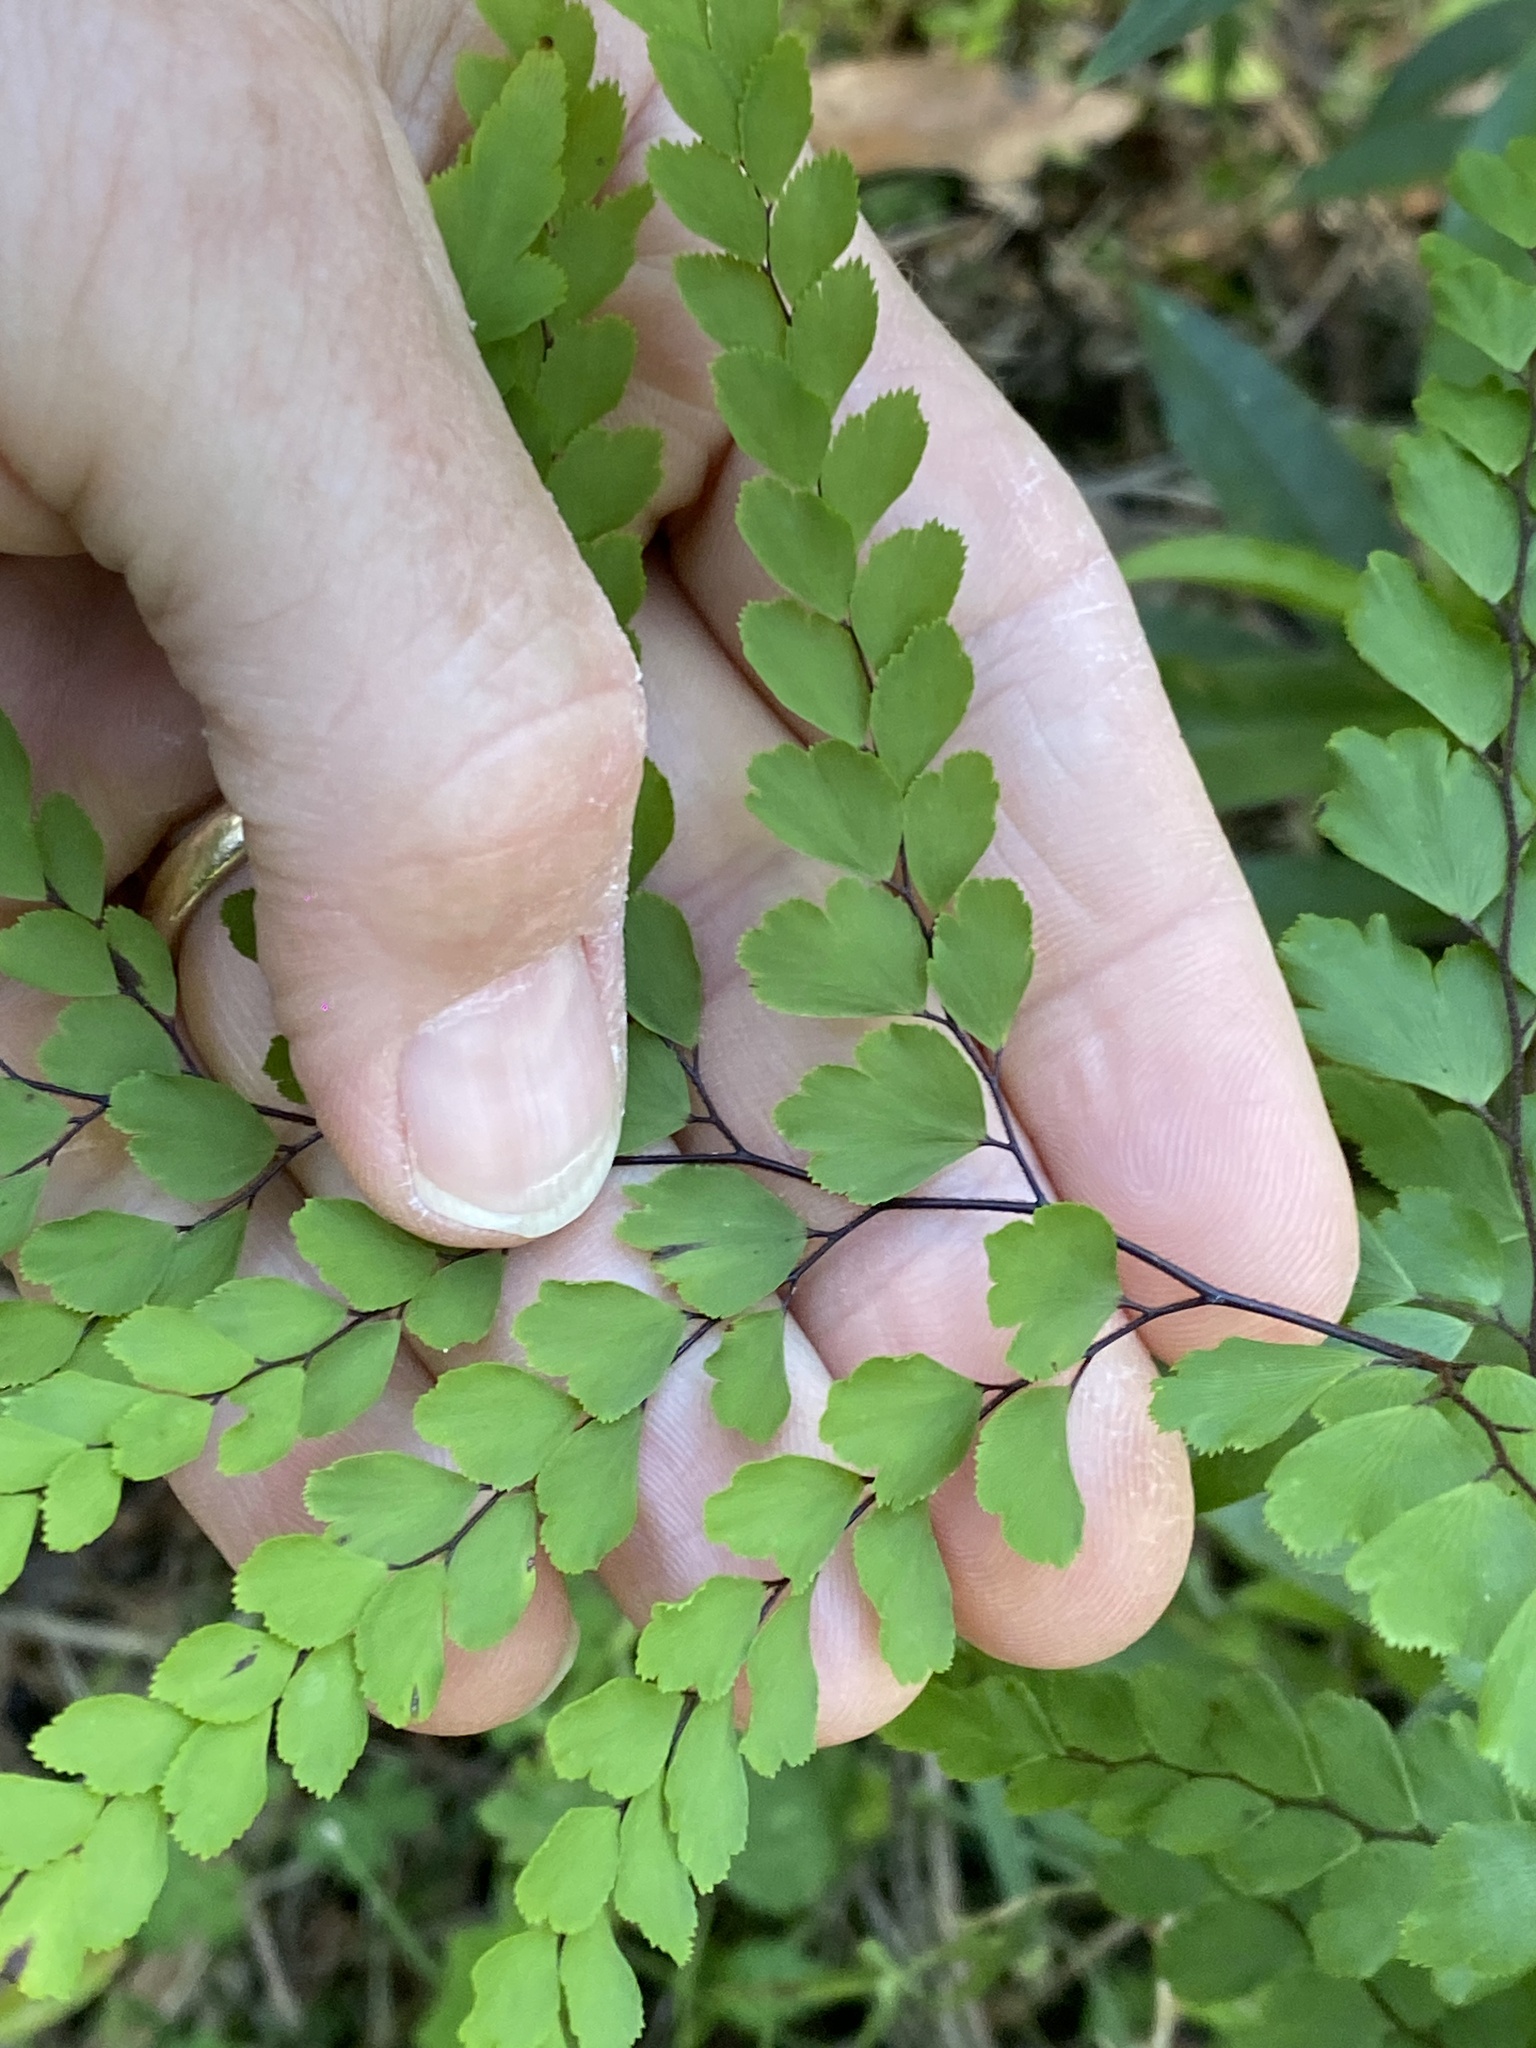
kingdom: Plantae
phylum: Tracheophyta
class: Polypodiopsida
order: Polypodiales
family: Pteridaceae
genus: Adiantum
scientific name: Adiantum formosum
